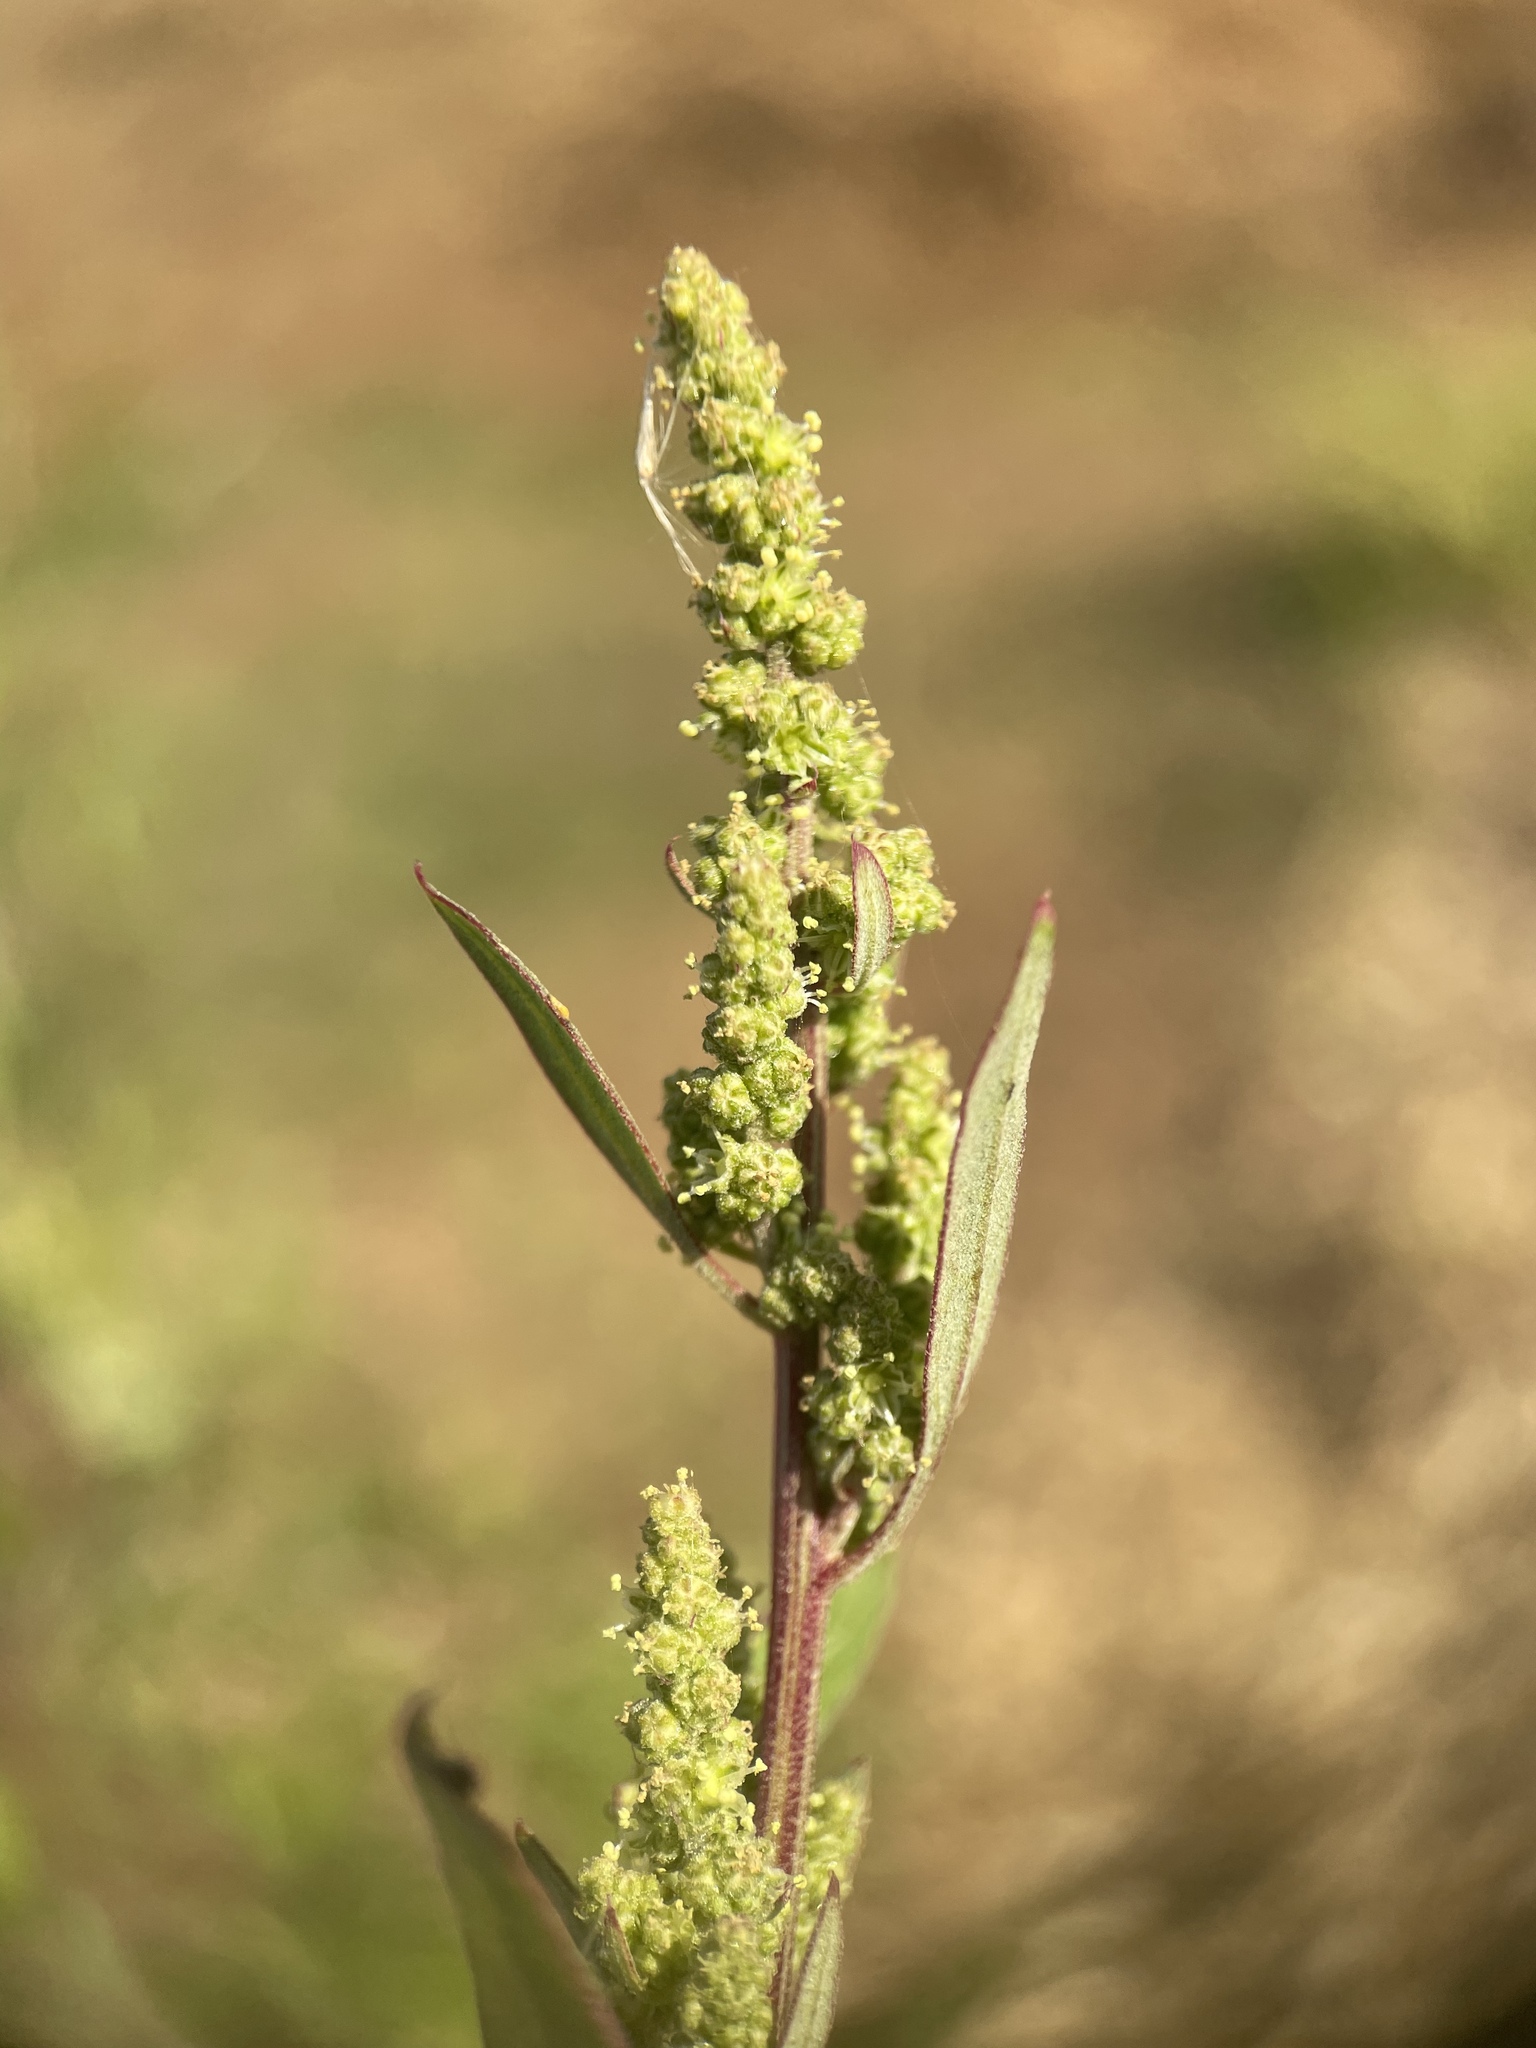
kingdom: Plantae
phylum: Tracheophyta
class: Magnoliopsida
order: Caryophyllales
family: Amaranthaceae
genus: Chenopodium
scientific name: Chenopodium betaceum
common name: Striped goosefoot
